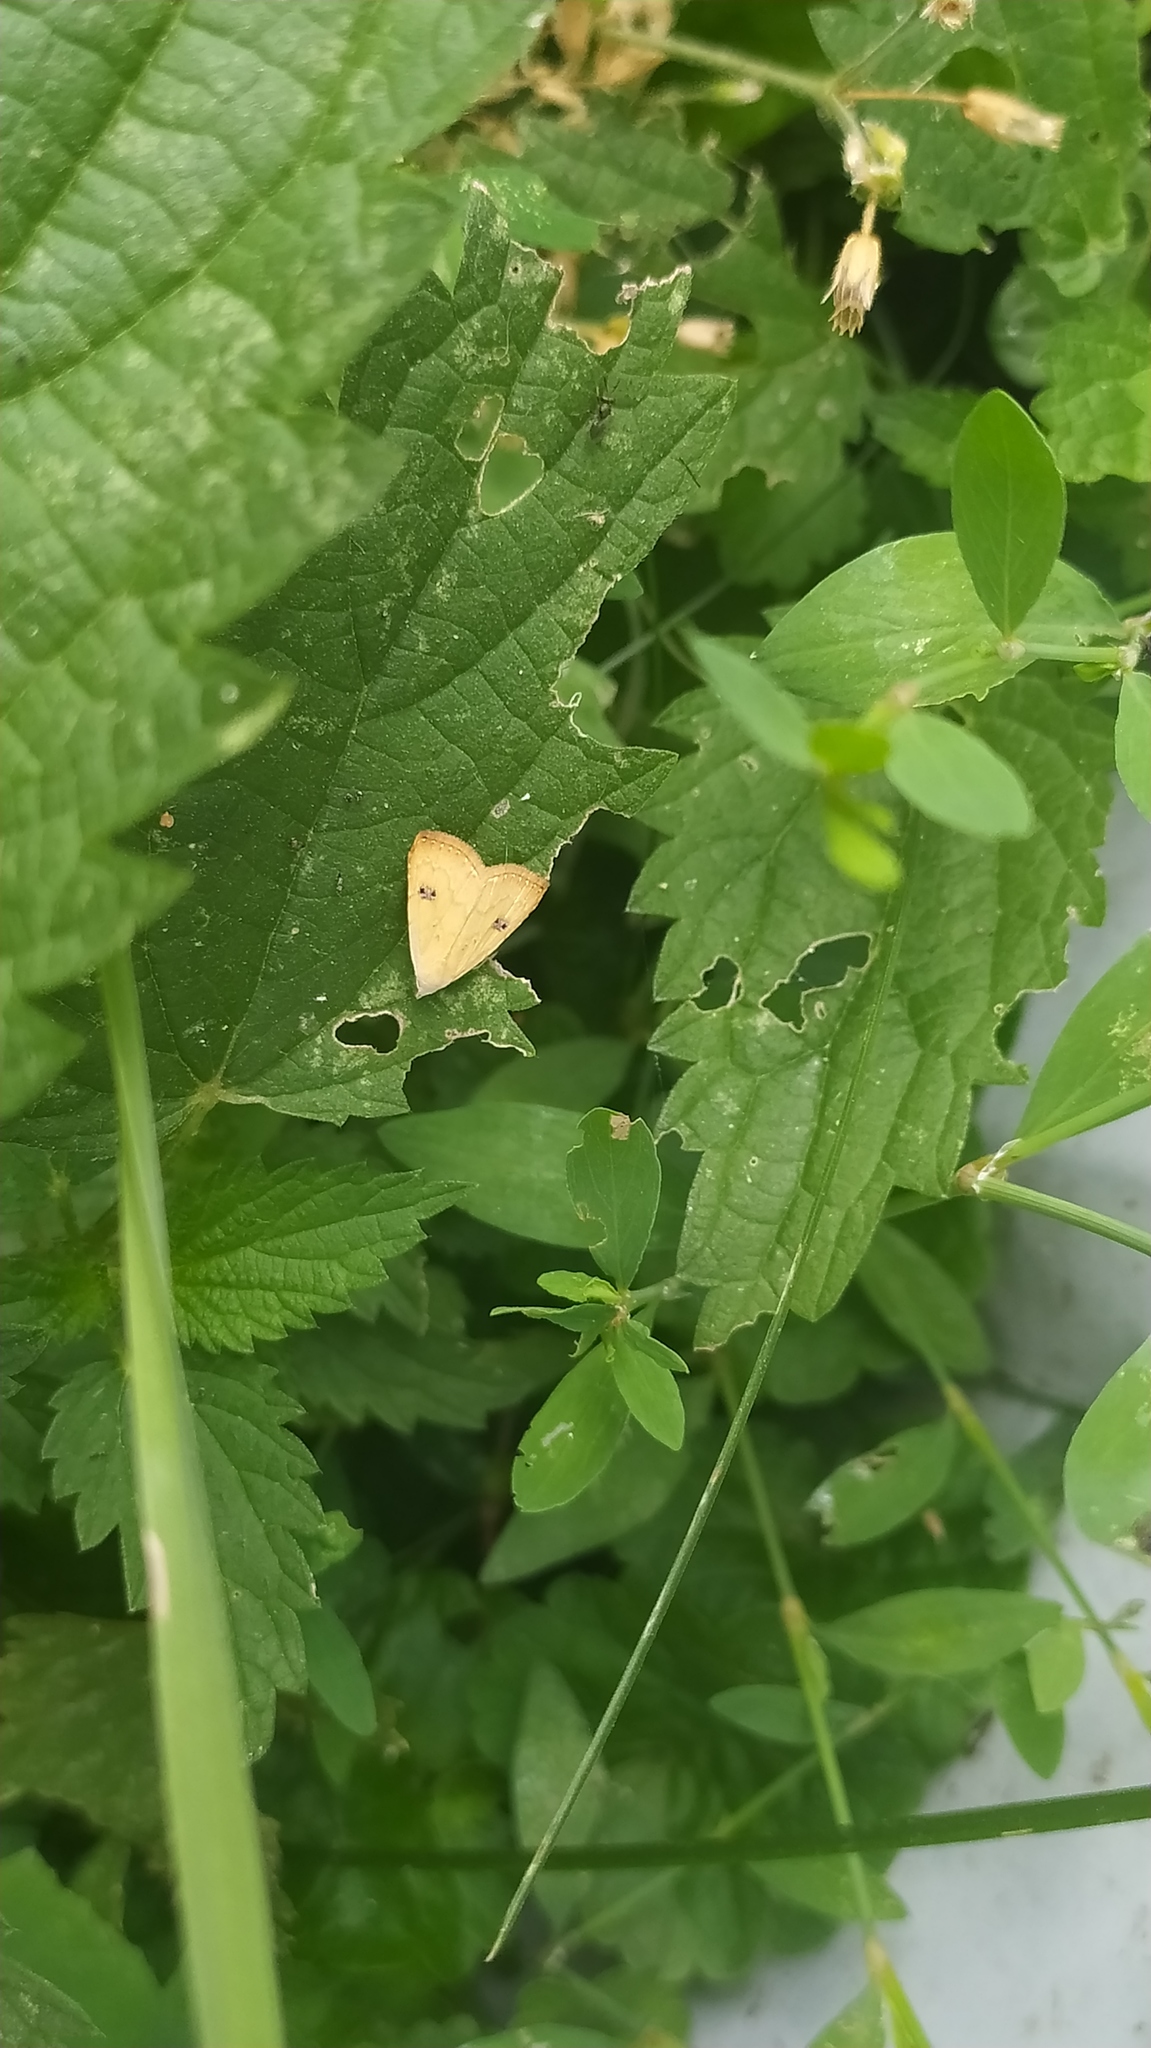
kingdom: Animalia
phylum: Arthropoda
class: Insecta
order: Lepidoptera
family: Erebidae
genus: Rivula
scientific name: Rivula sericealis
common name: Straw dot
